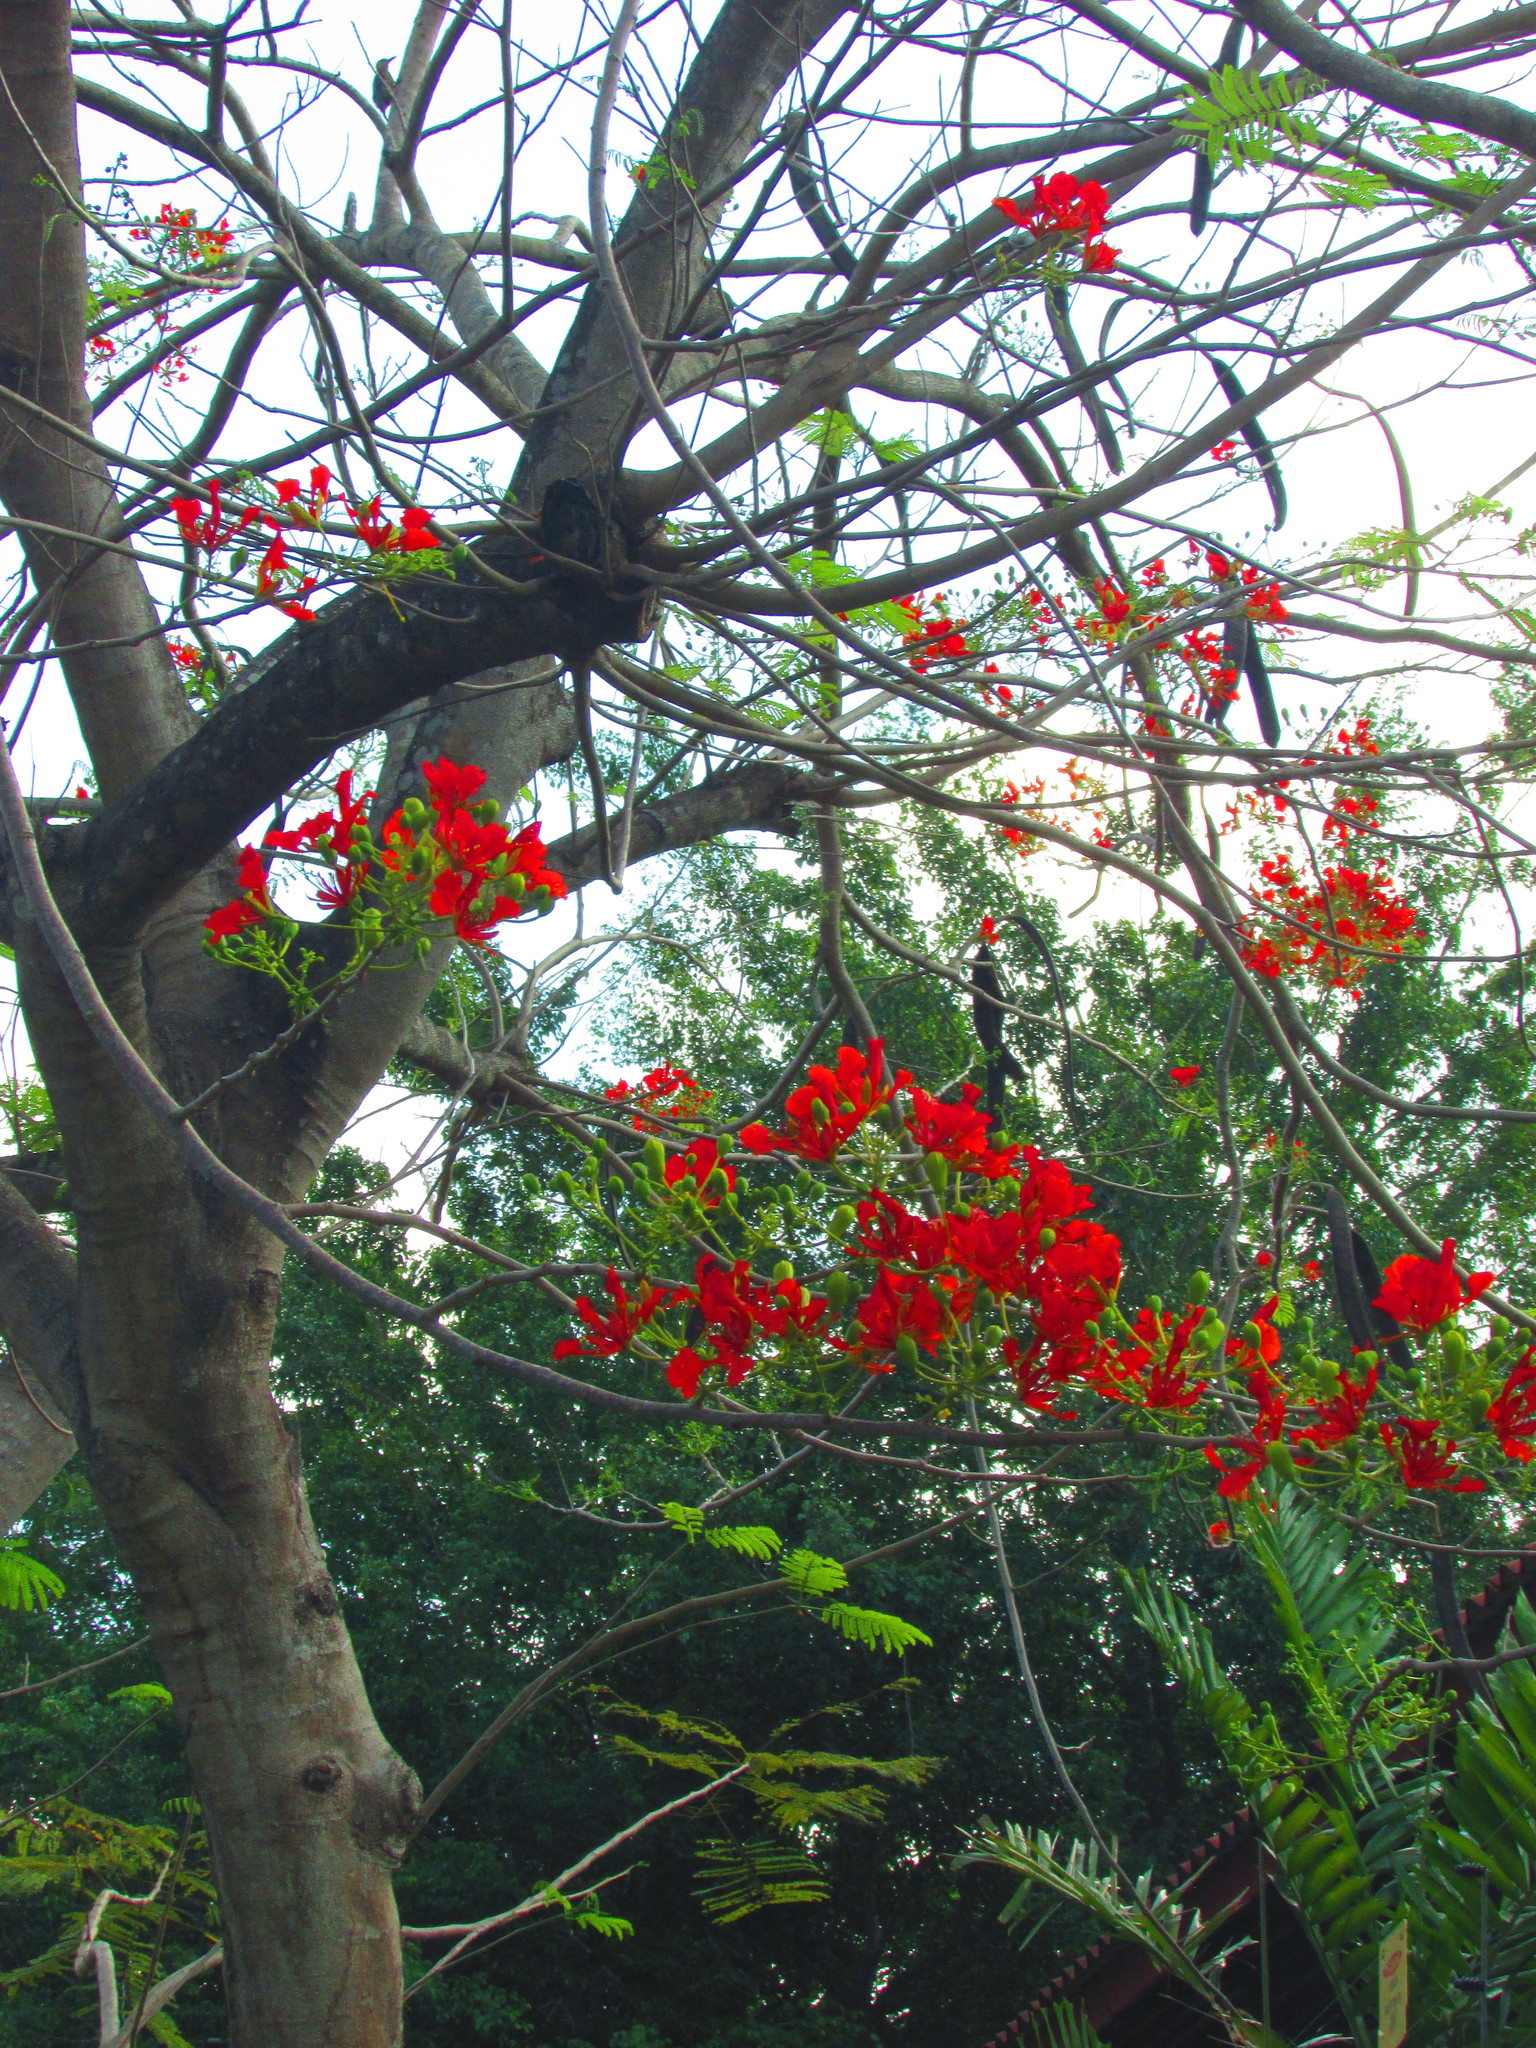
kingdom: Plantae
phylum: Tracheophyta
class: Magnoliopsida
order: Fabales
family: Fabaceae
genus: Delonix
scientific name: Delonix regia
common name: Royal poinciana
